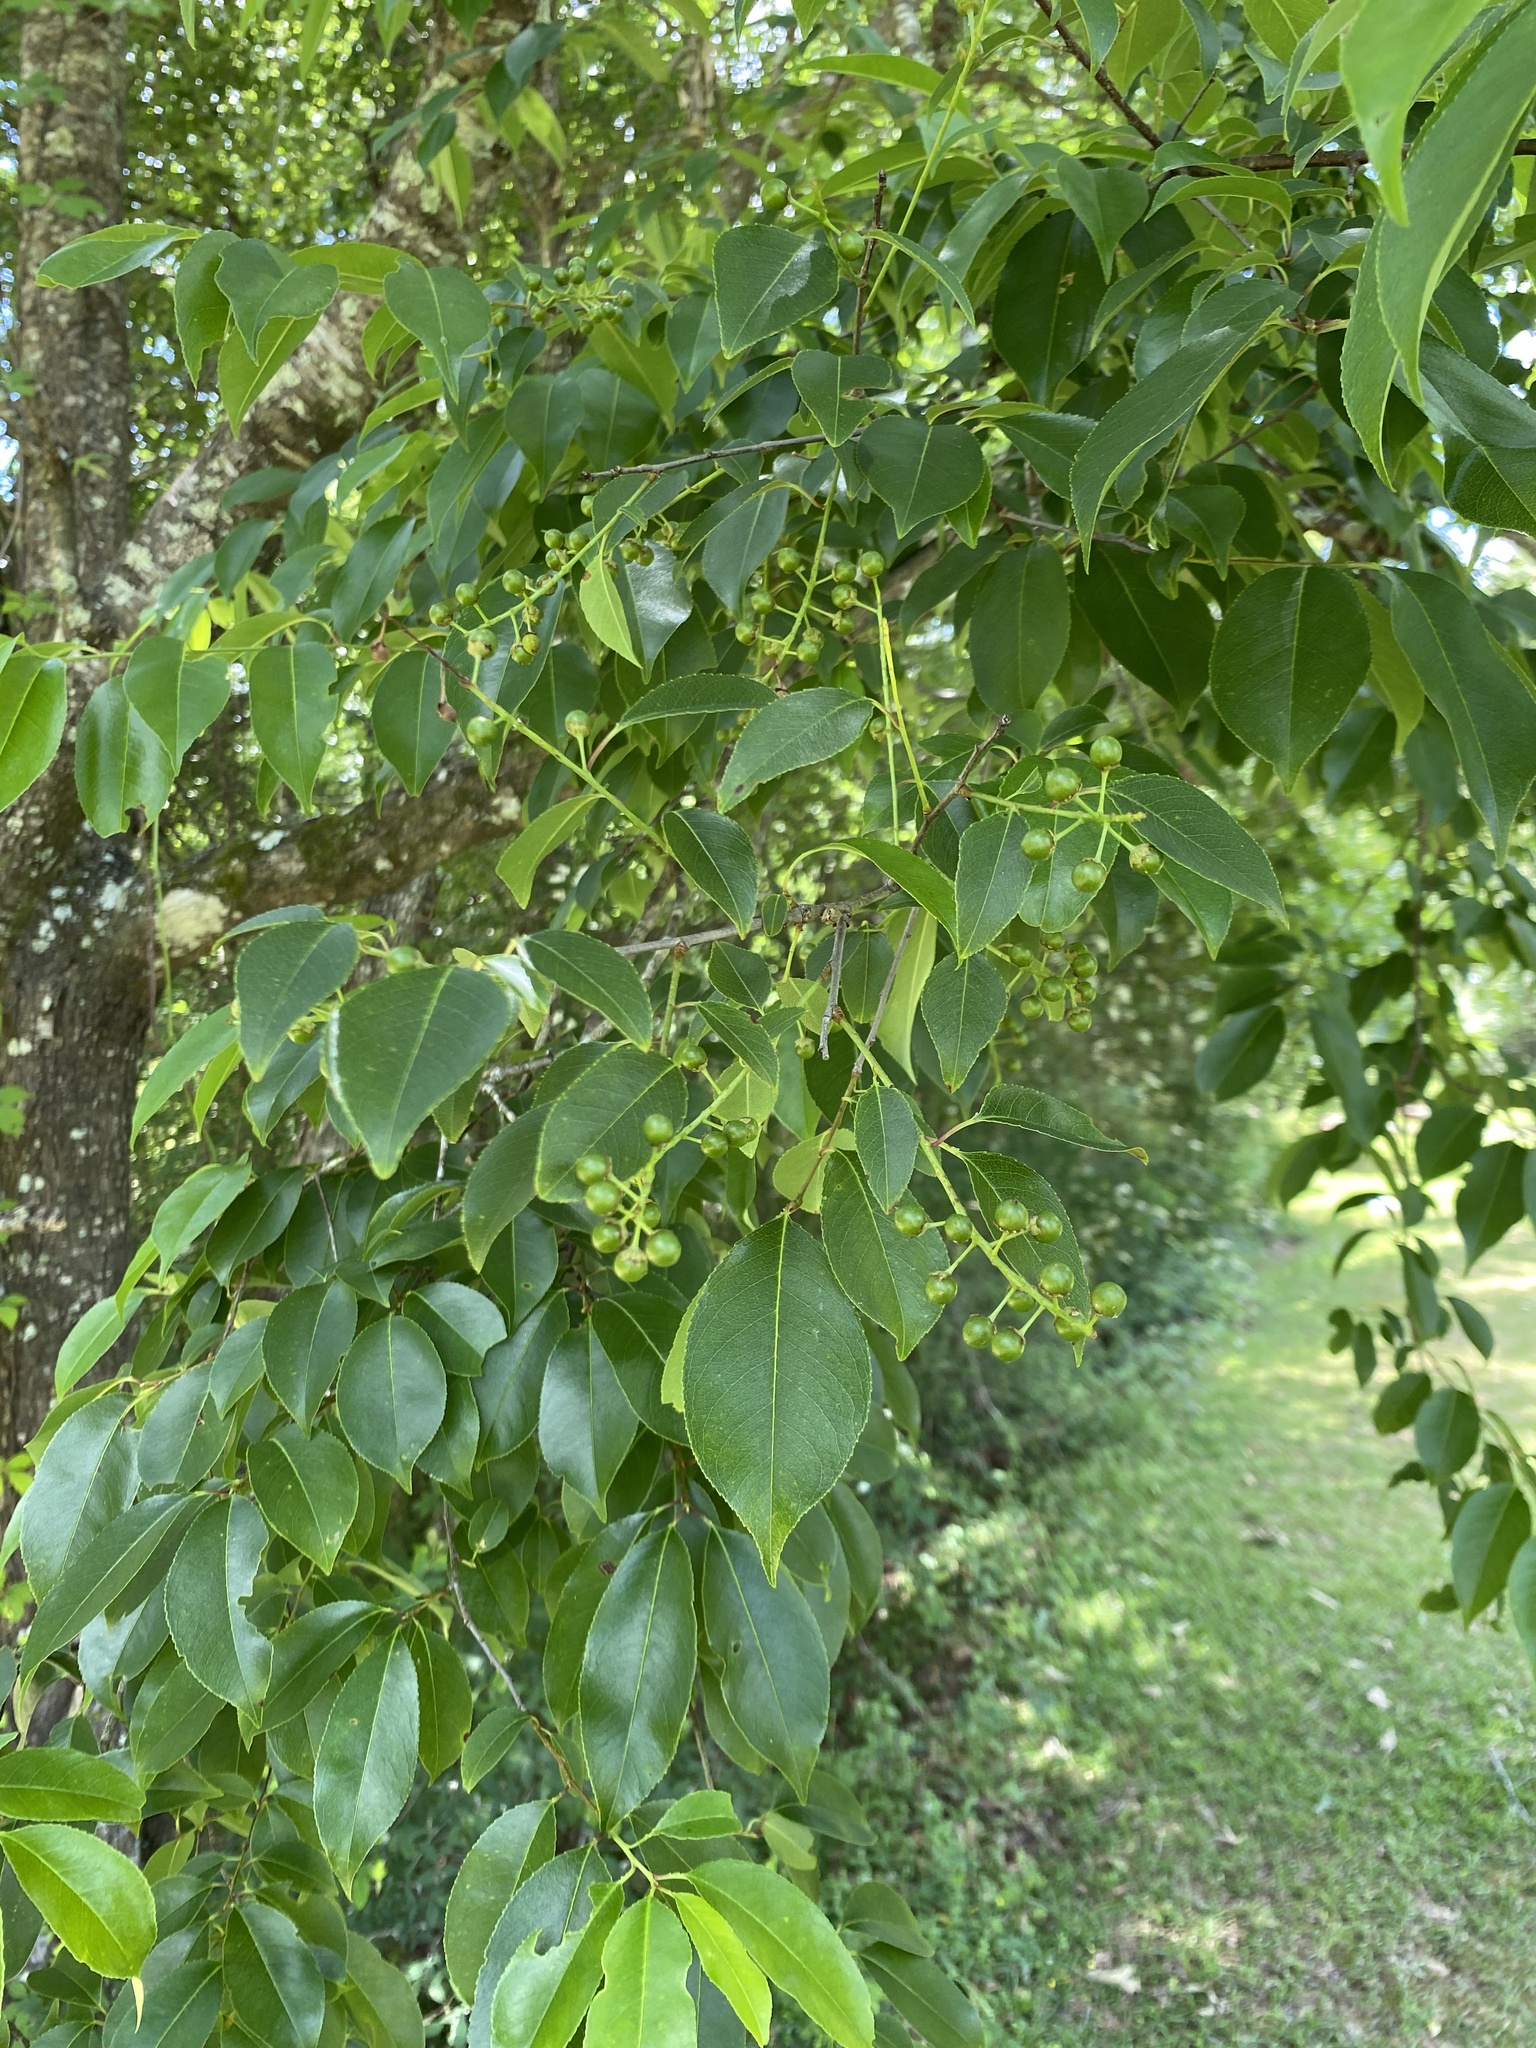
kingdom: Plantae
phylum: Tracheophyta
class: Magnoliopsida
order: Rosales
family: Rosaceae
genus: Prunus
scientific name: Prunus serotina
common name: Black cherry
